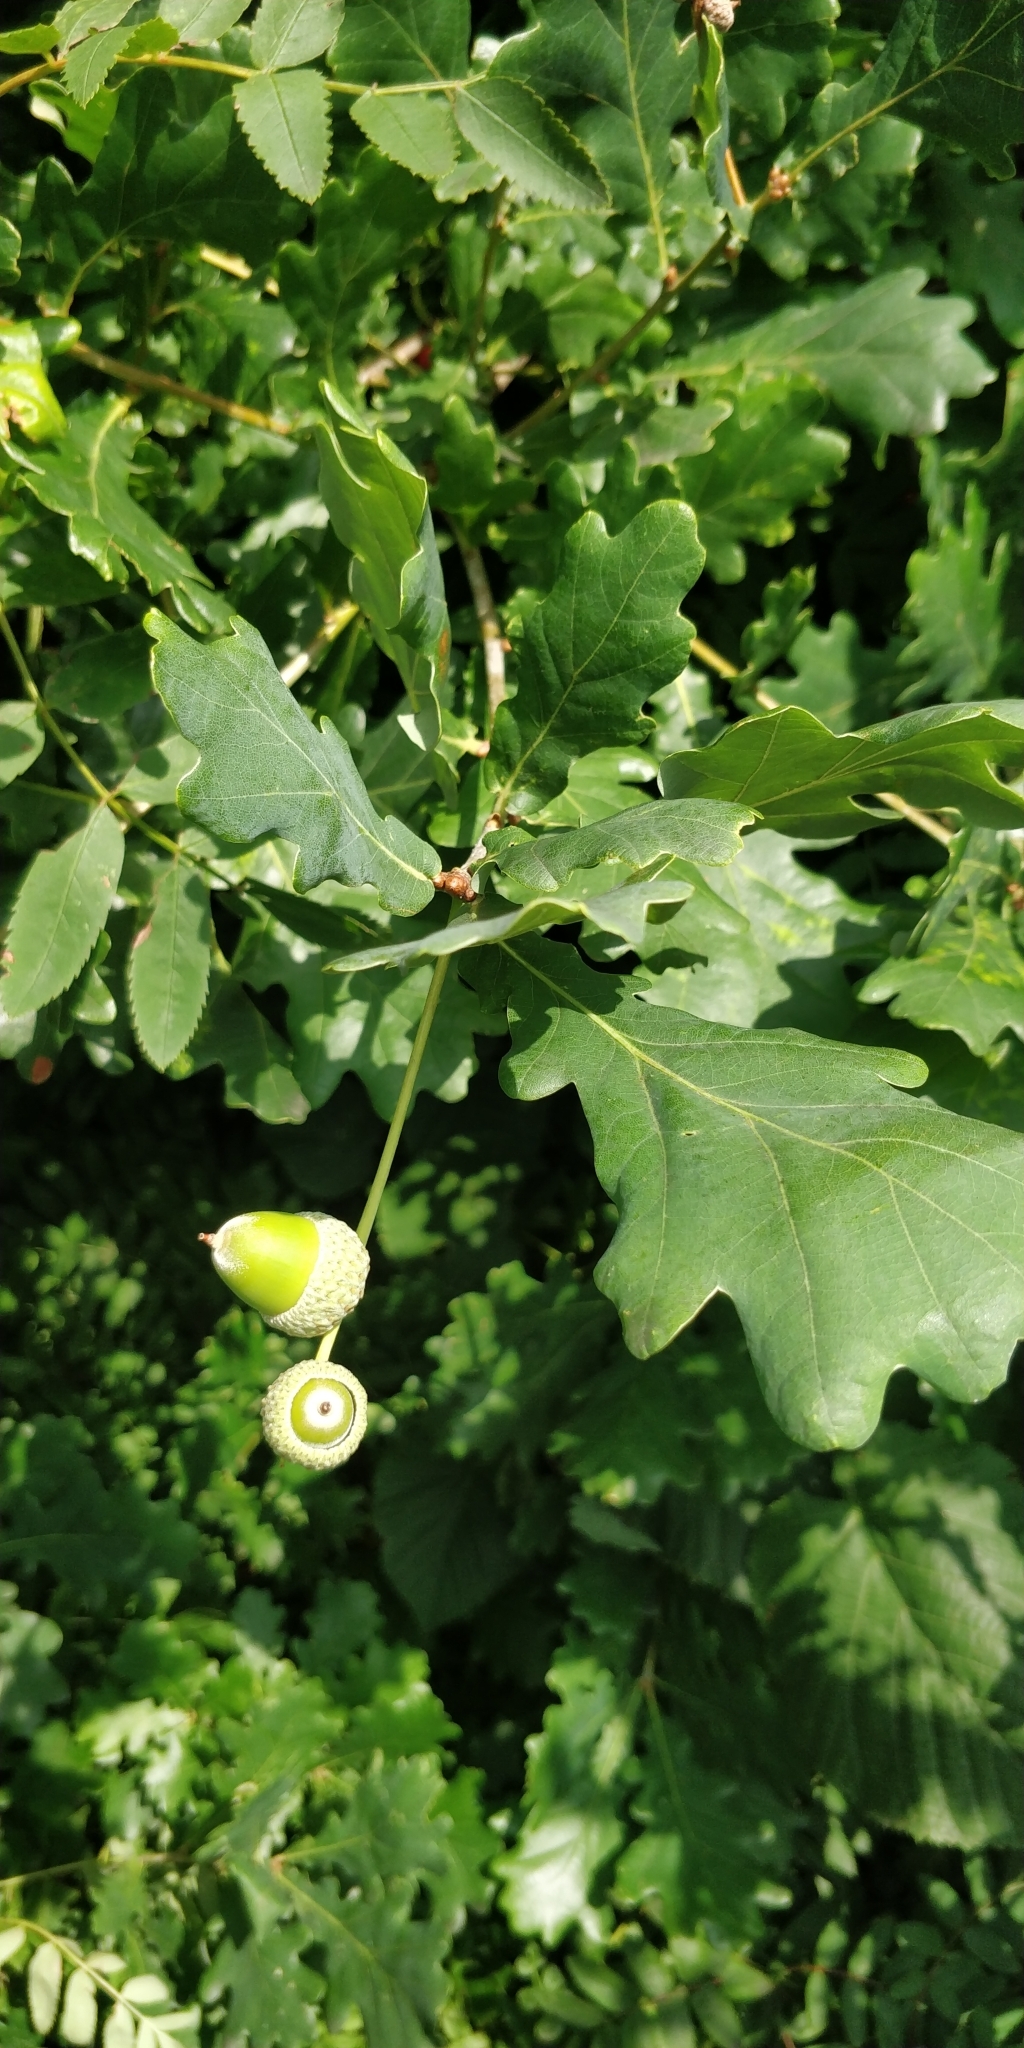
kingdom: Plantae
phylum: Tracheophyta
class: Magnoliopsida
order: Fagales
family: Fagaceae
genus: Quercus
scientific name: Quercus robur
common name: Pedunculate oak
